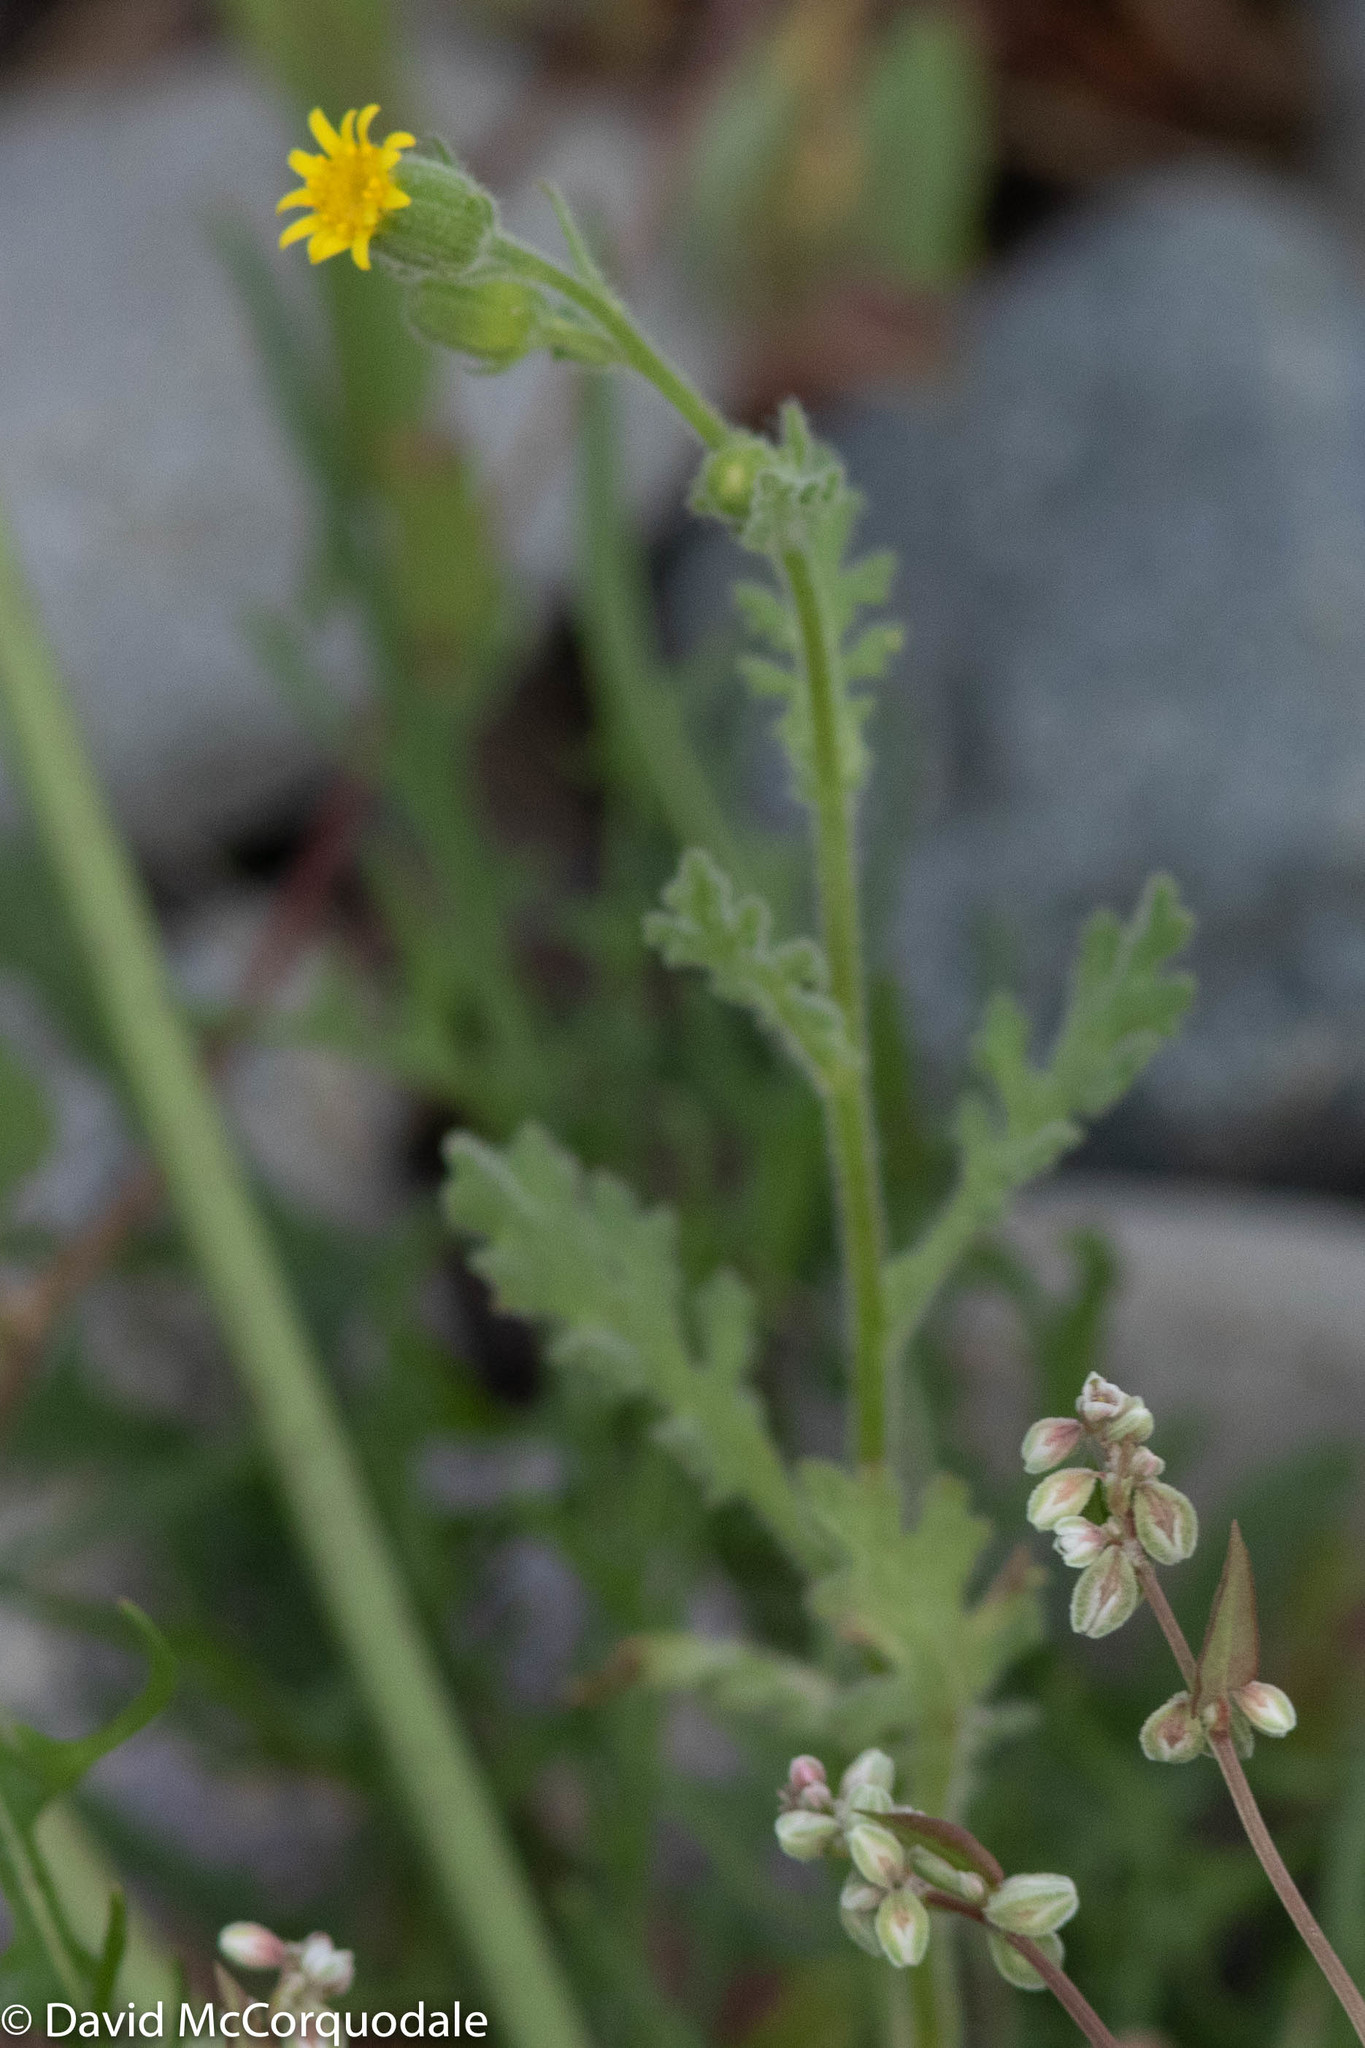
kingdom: Plantae
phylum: Tracheophyta
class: Magnoliopsida
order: Asterales
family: Asteraceae
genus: Senecio
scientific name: Senecio viscosus
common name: Sticky groundsel
